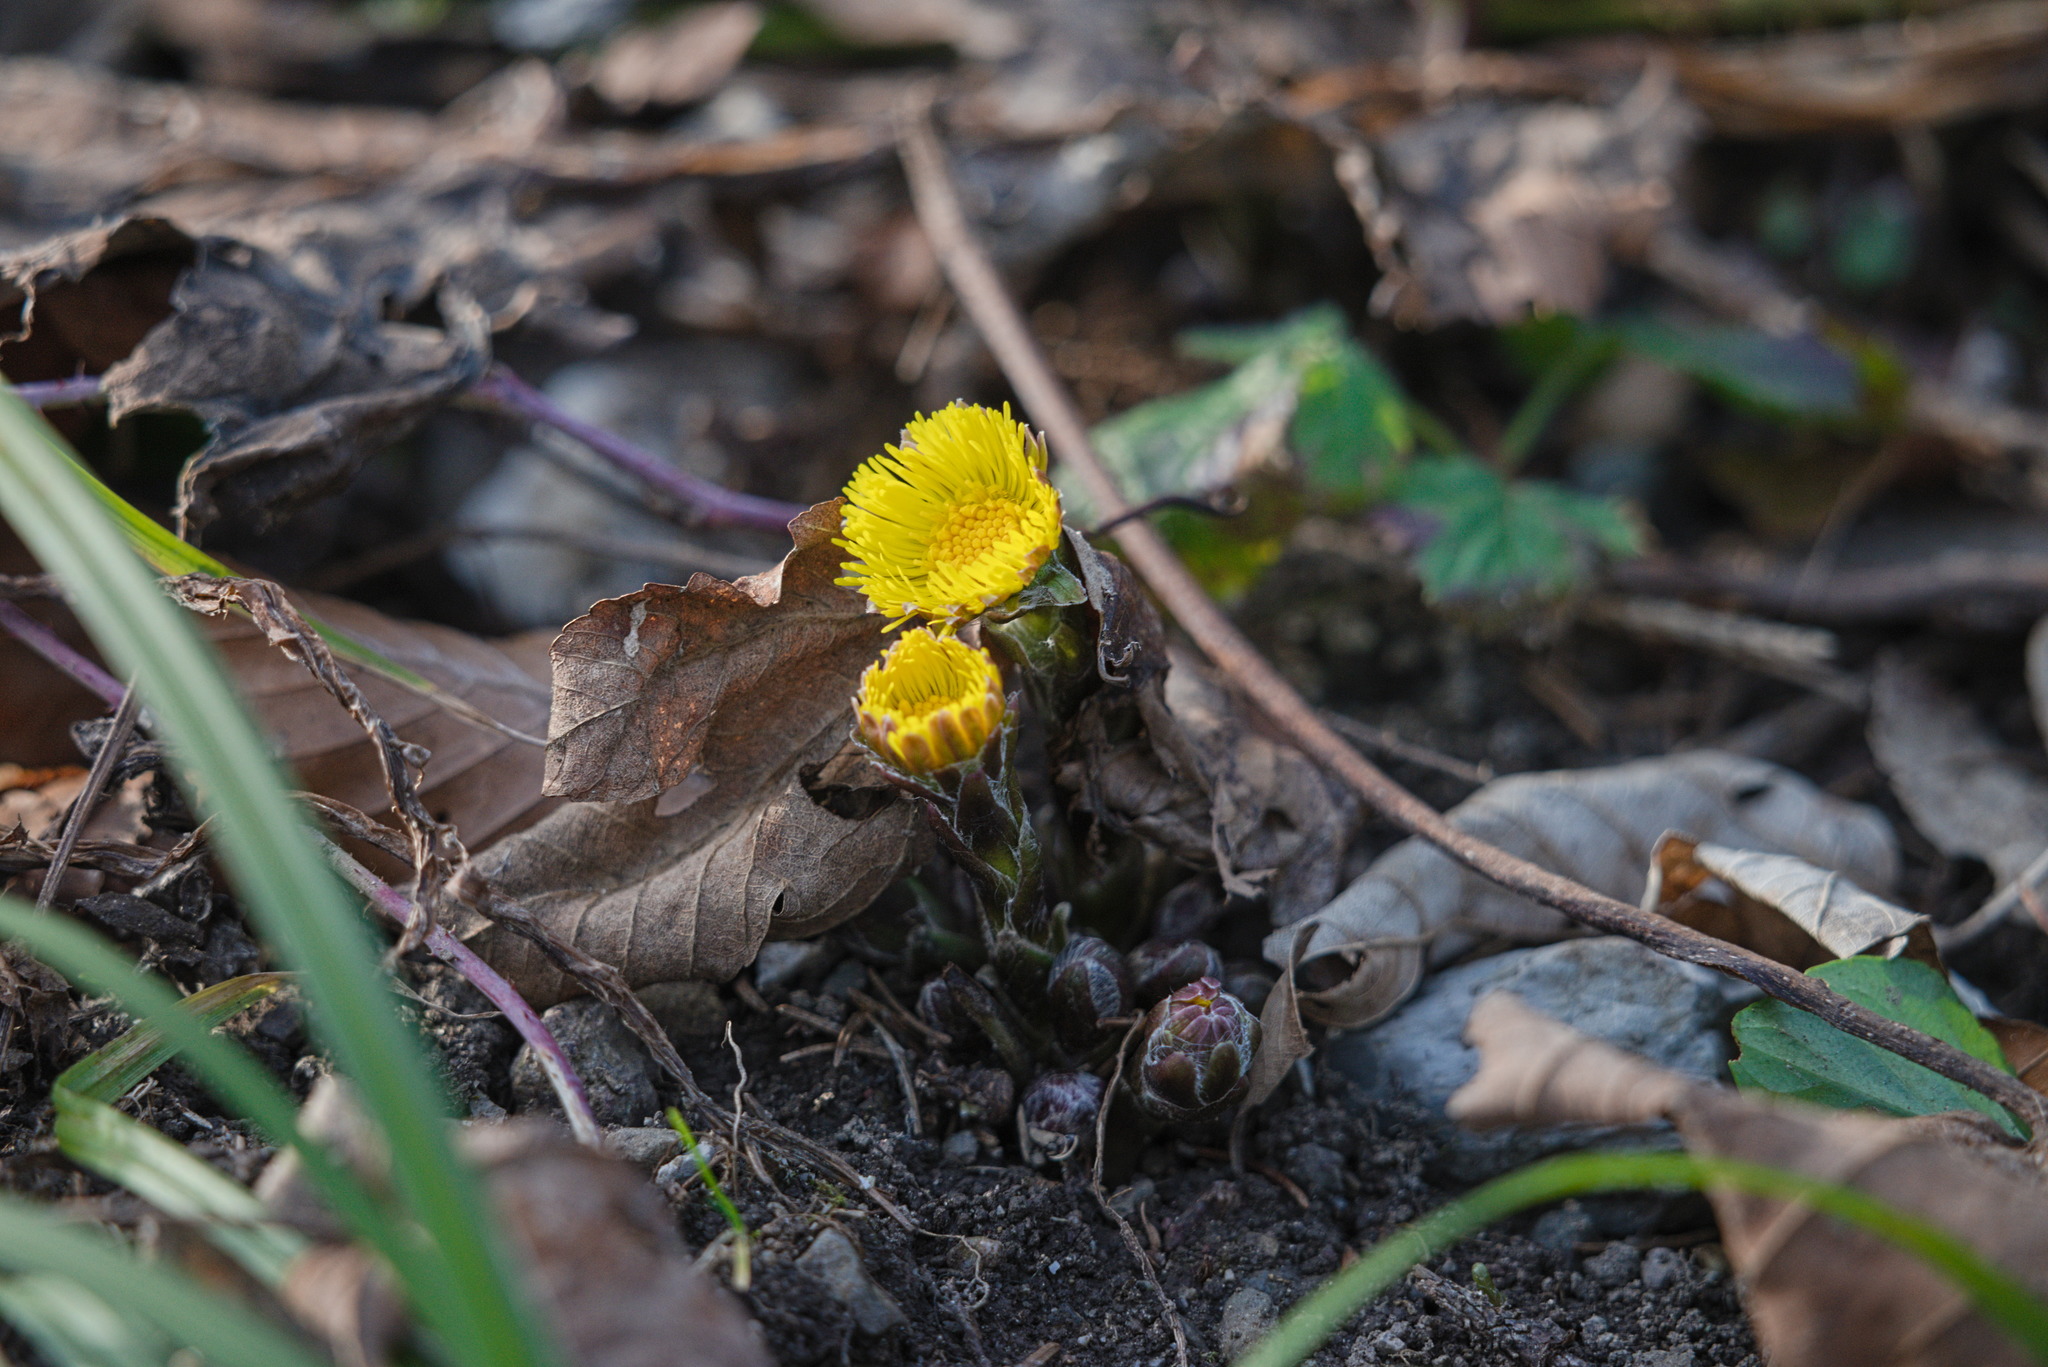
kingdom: Plantae
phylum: Tracheophyta
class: Magnoliopsida
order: Asterales
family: Asteraceae
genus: Tussilago
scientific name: Tussilago farfara
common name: Coltsfoot
